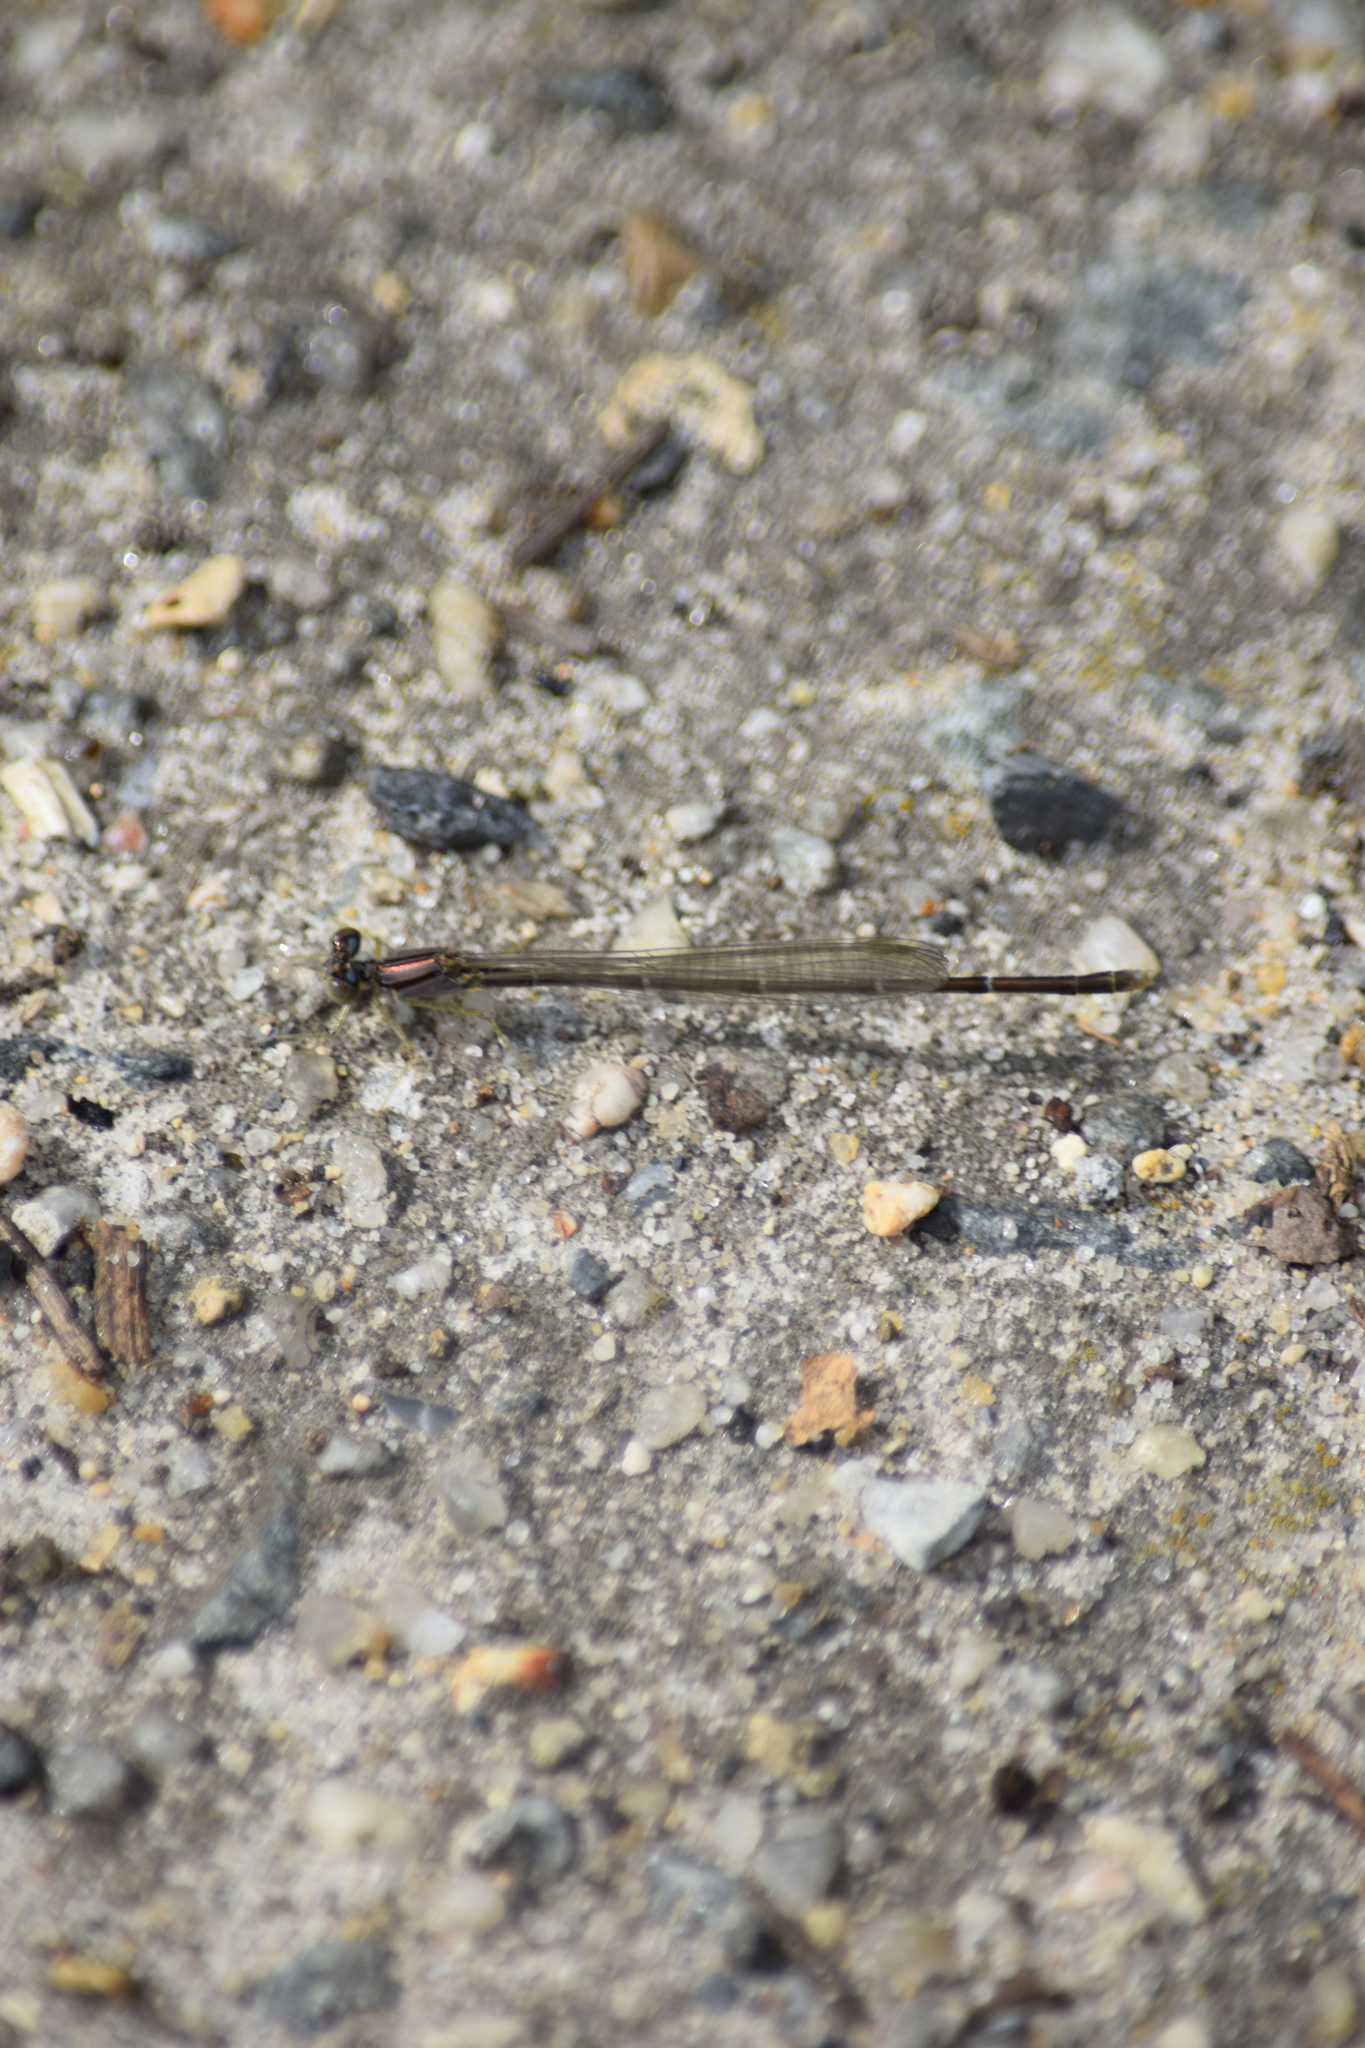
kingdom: Animalia
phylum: Arthropoda
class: Insecta
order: Odonata
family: Coenagrionidae
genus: Enallagma
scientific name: Enallagma signatum
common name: Orange bluet
